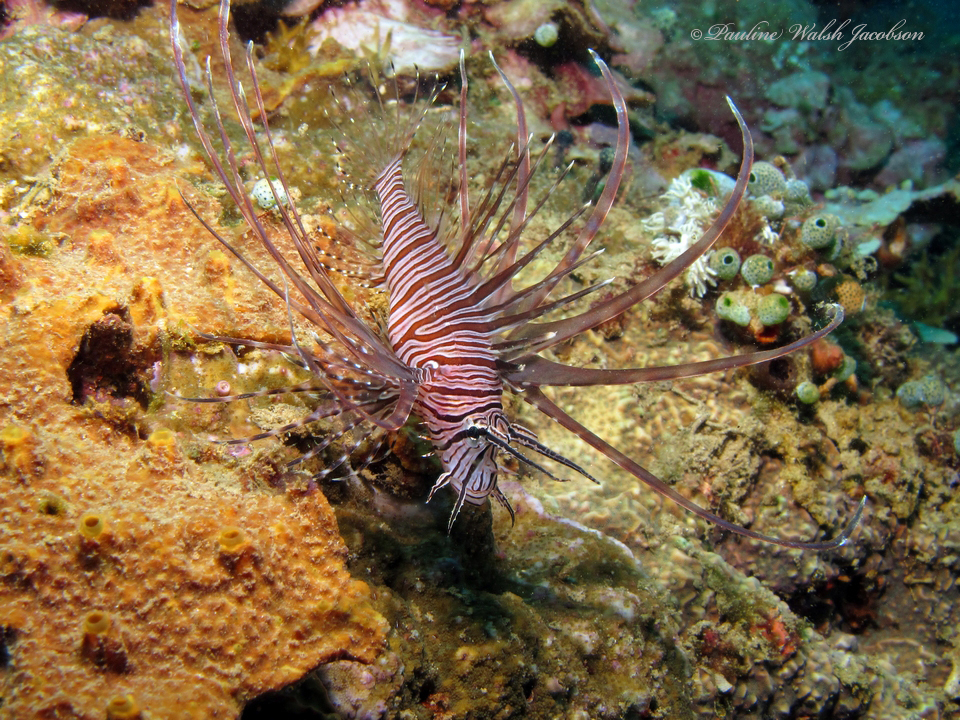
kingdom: Animalia
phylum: Chordata
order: Scorpaeniformes
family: Scorpaenidae
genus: Pterois
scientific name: Pterois russelii
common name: Plaintail firefish
